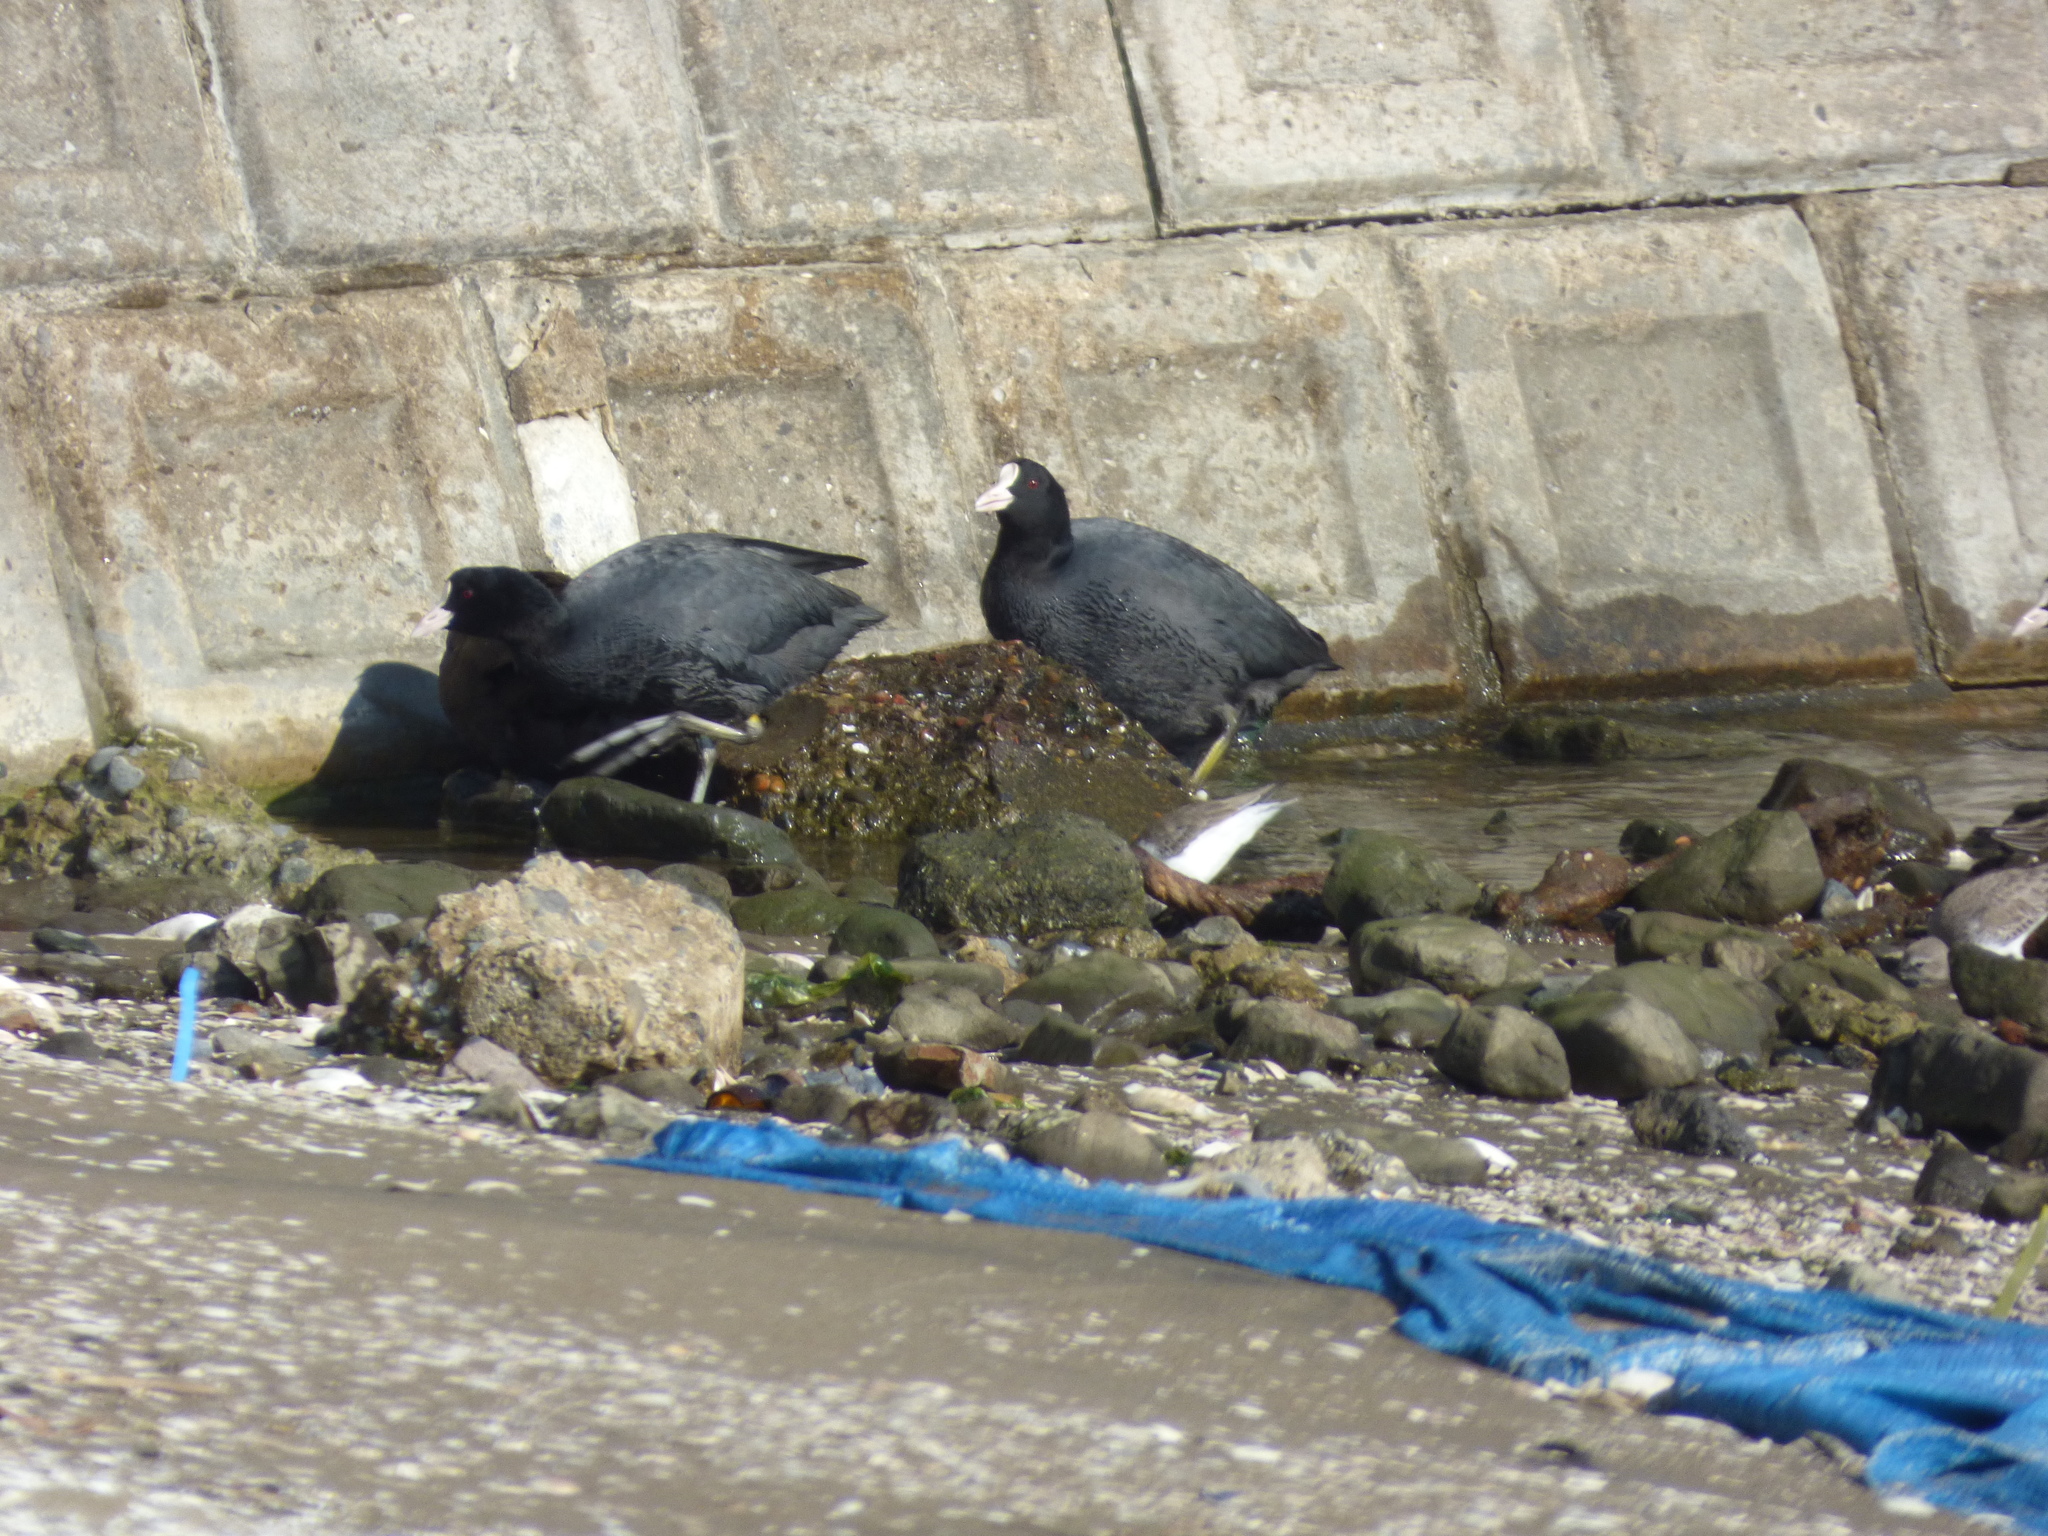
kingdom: Animalia
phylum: Chordata
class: Aves
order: Gruiformes
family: Rallidae
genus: Fulica
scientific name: Fulica atra
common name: Eurasian coot
